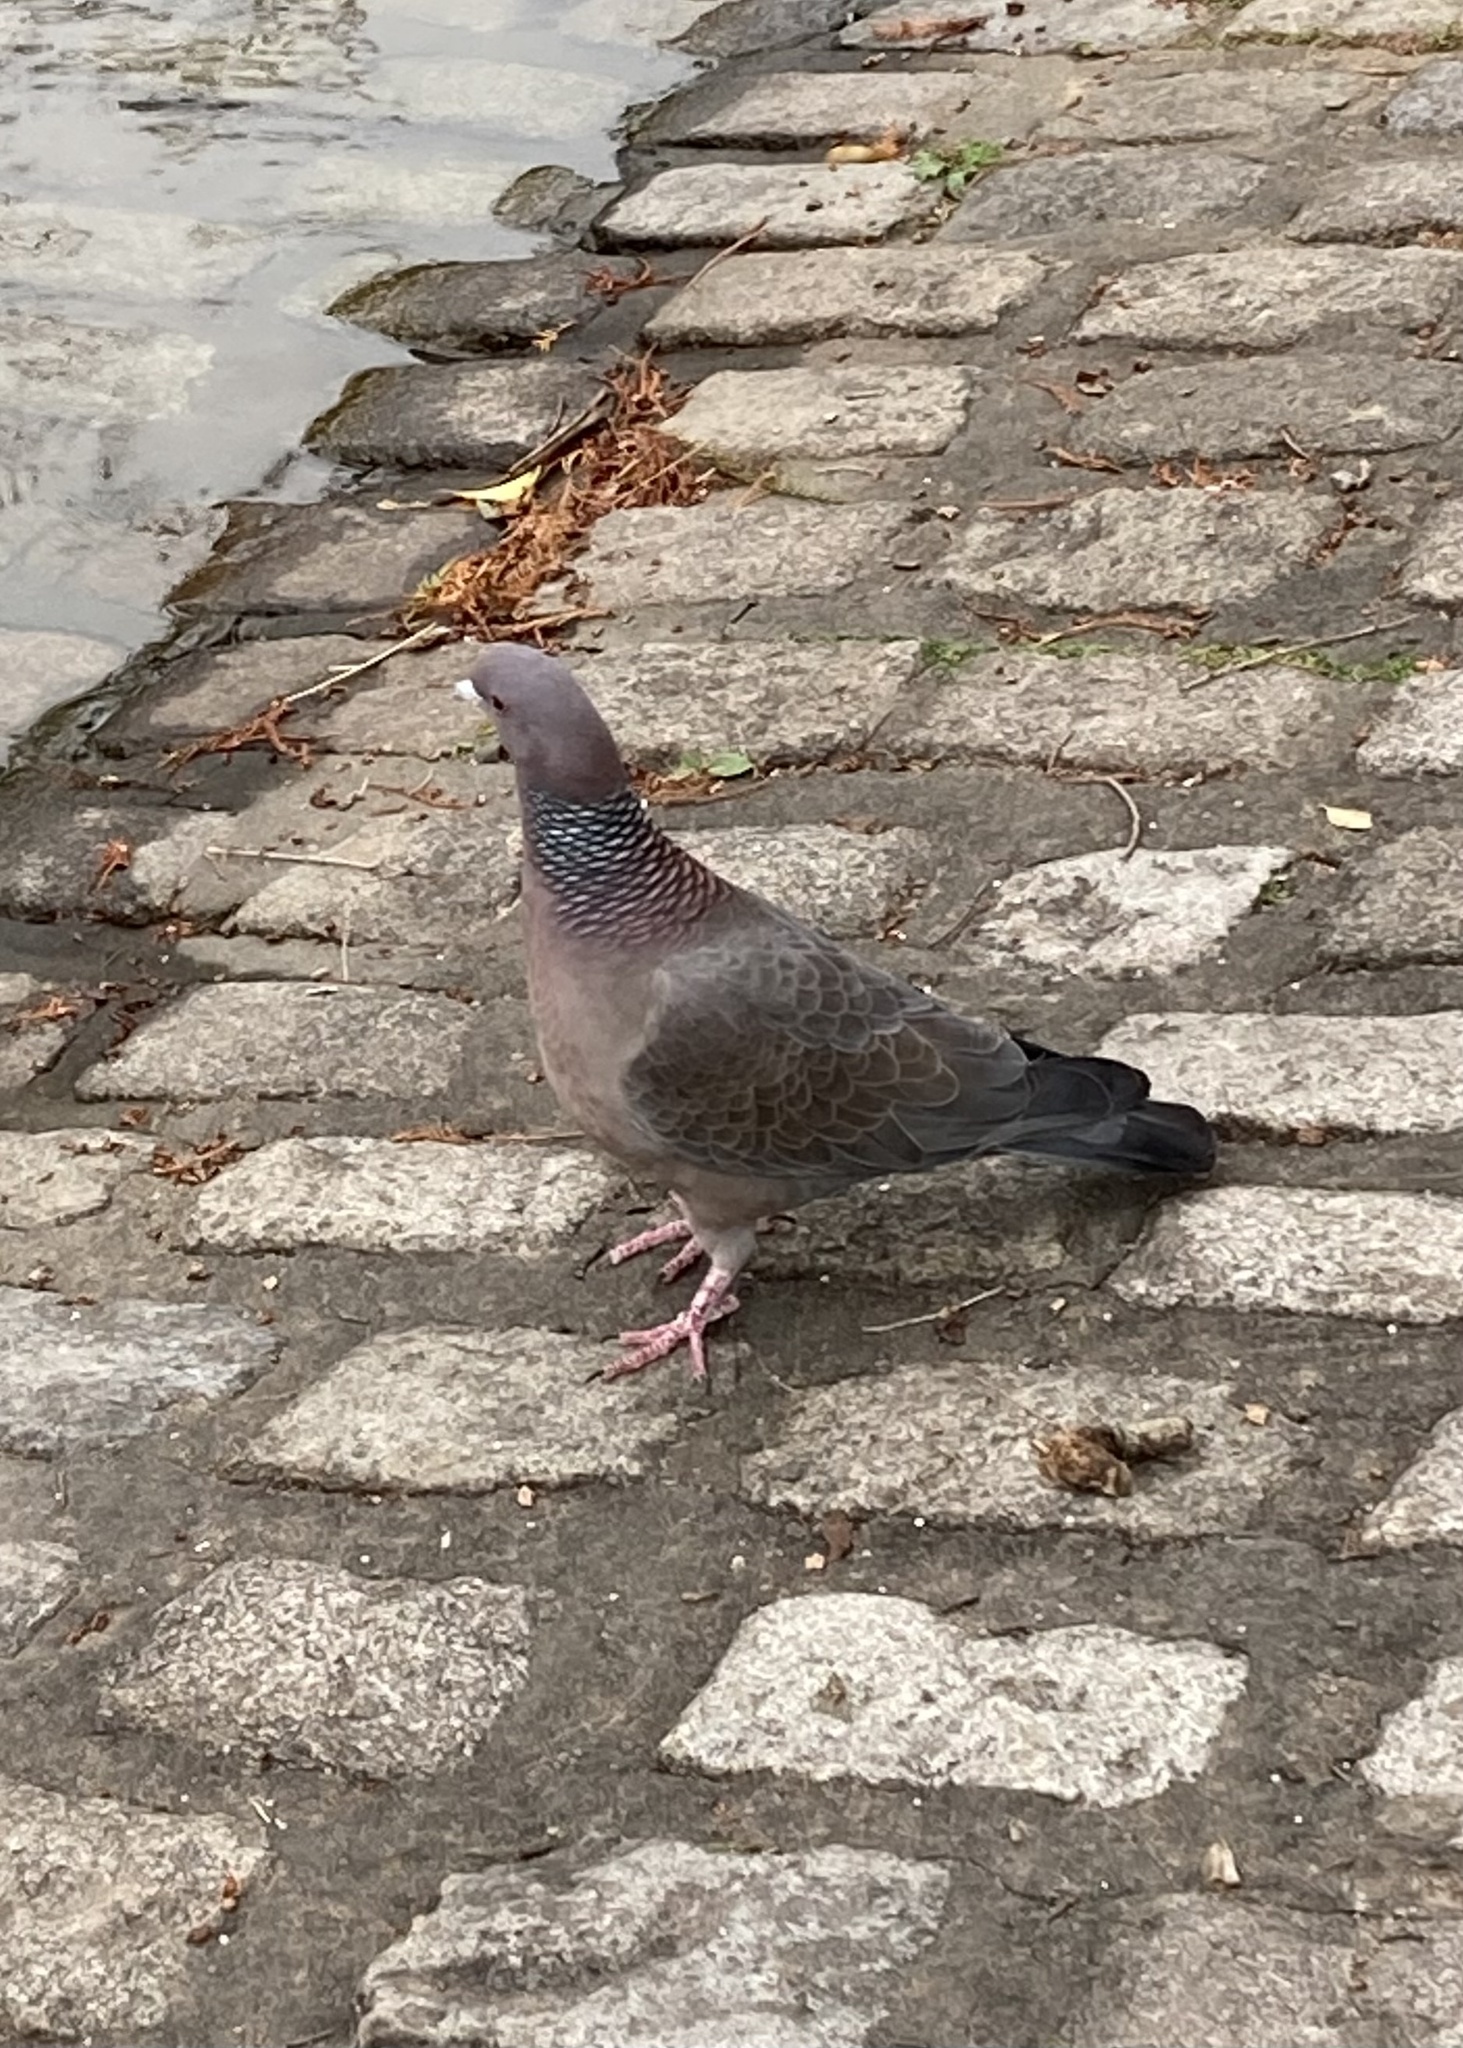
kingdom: Animalia
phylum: Chordata
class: Aves
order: Columbiformes
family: Columbidae
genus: Patagioenas
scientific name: Patagioenas picazuro
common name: Picazuro pigeon
